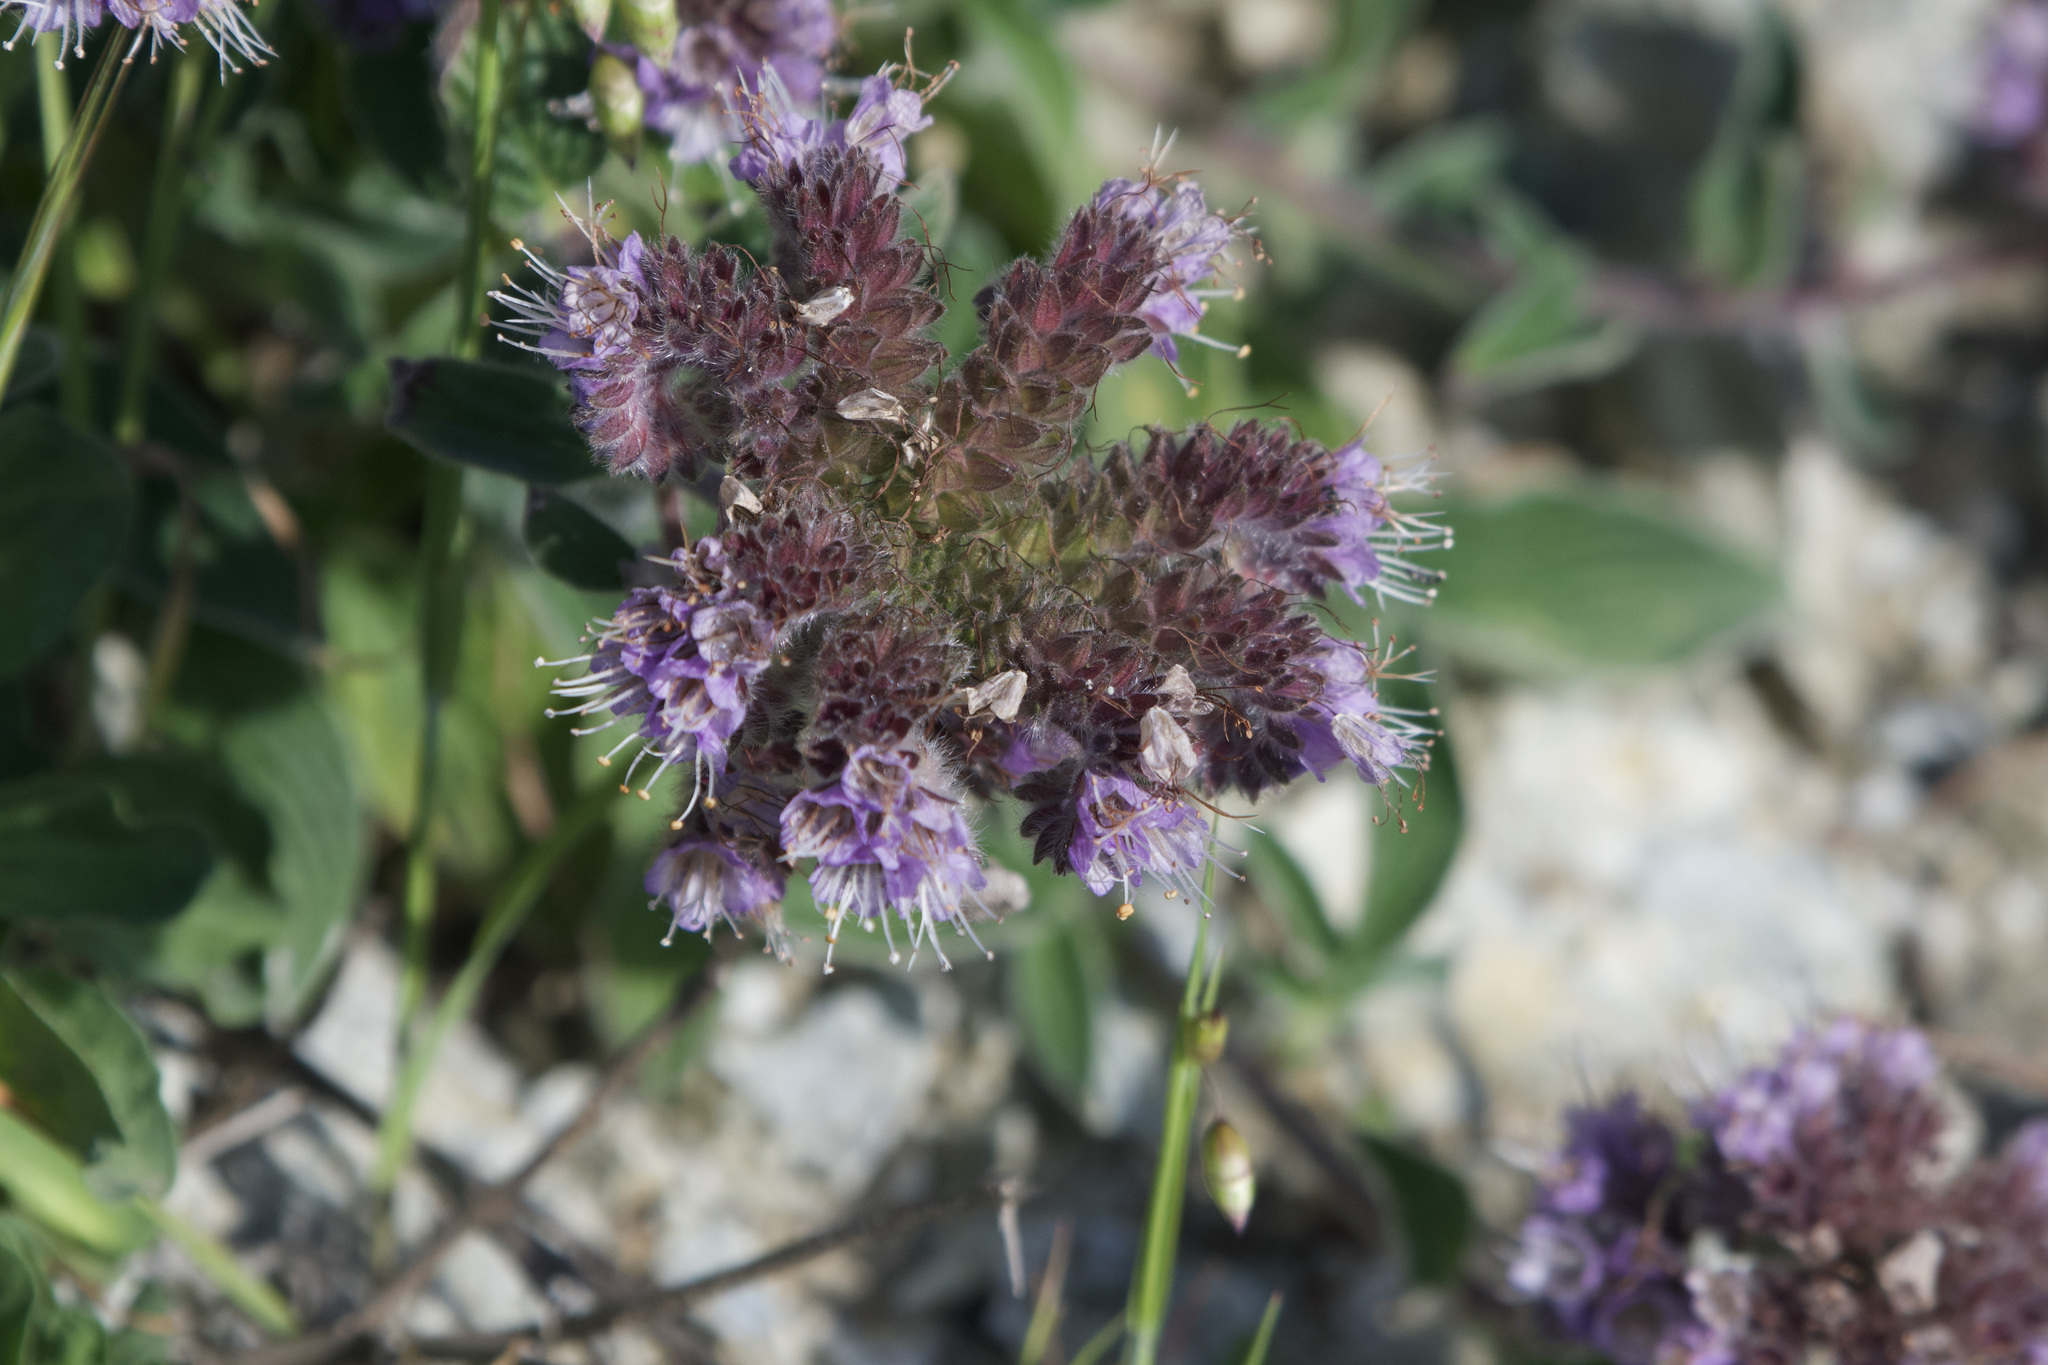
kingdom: Plantae
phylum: Tracheophyta
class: Magnoliopsida
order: Boraginales
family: Hydrophyllaceae
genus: Phacelia
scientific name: Phacelia californica
